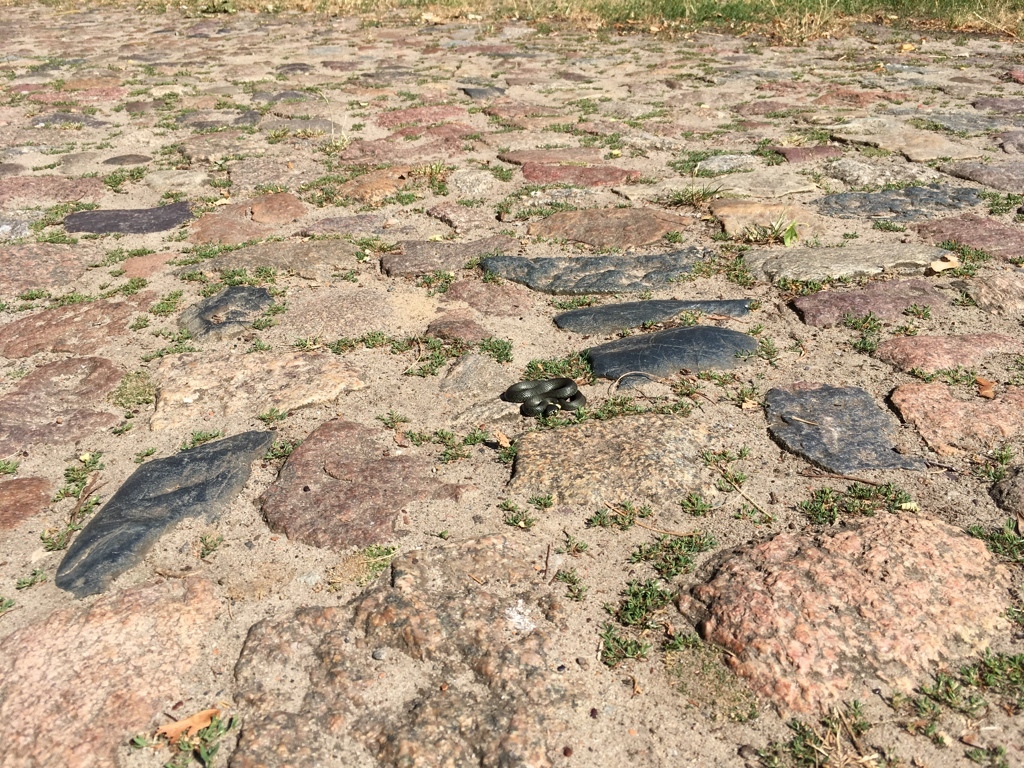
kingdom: Animalia
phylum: Chordata
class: Squamata
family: Colubridae
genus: Natrix
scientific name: Natrix natrix
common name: Grass snake
